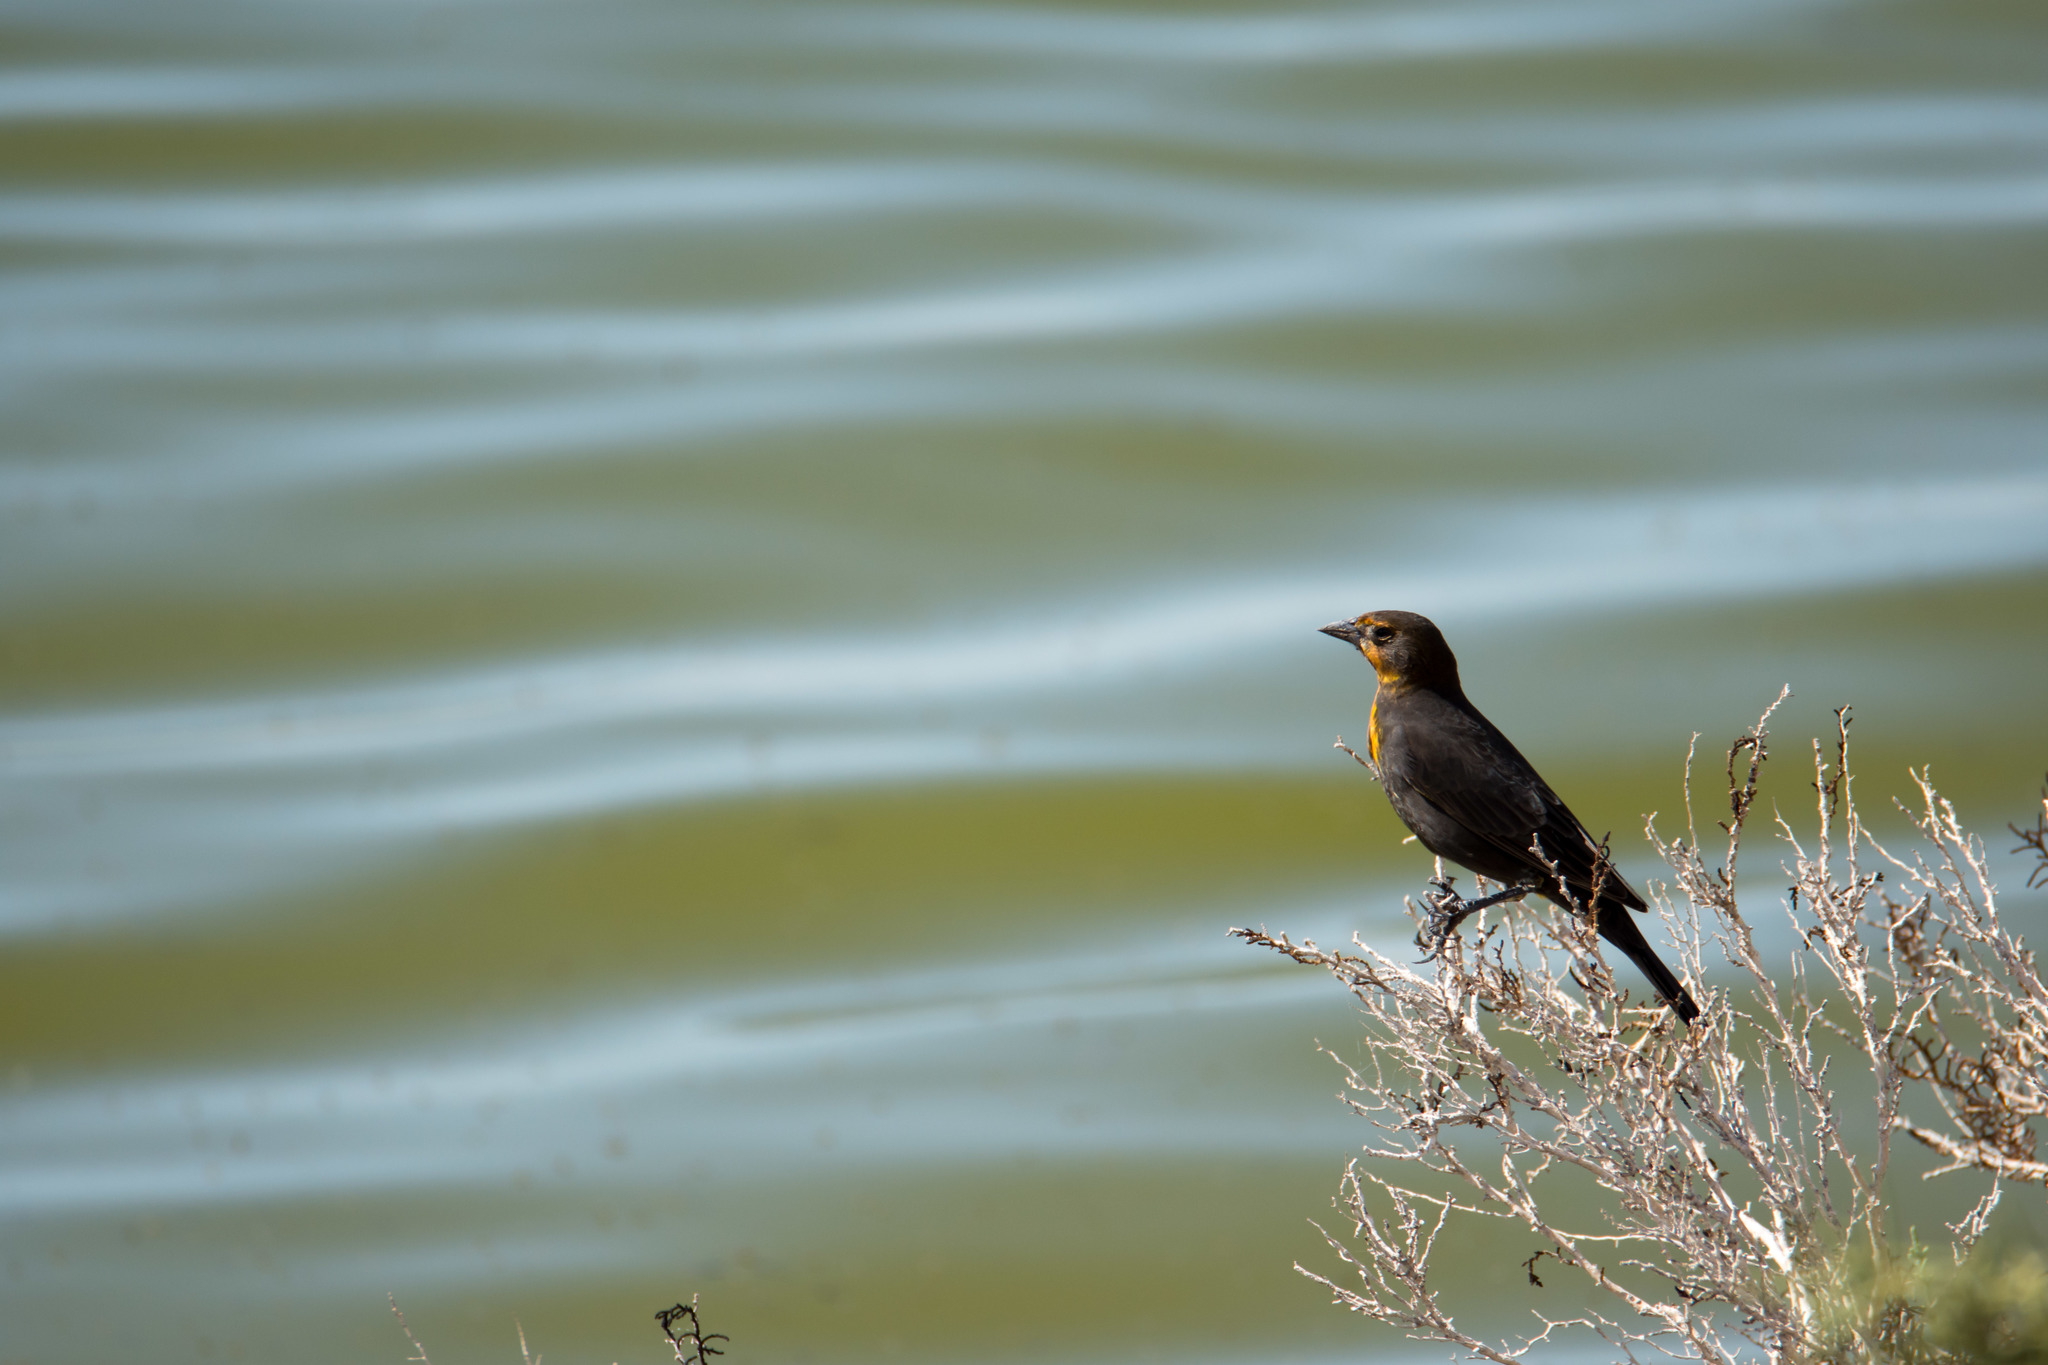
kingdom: Animalia
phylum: Chordata
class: Aves
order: Passeriformes
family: Icteridae
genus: Xanthocephalus
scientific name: Xanthocephalus xanthocephalus
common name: Yellow-headed blackbird
